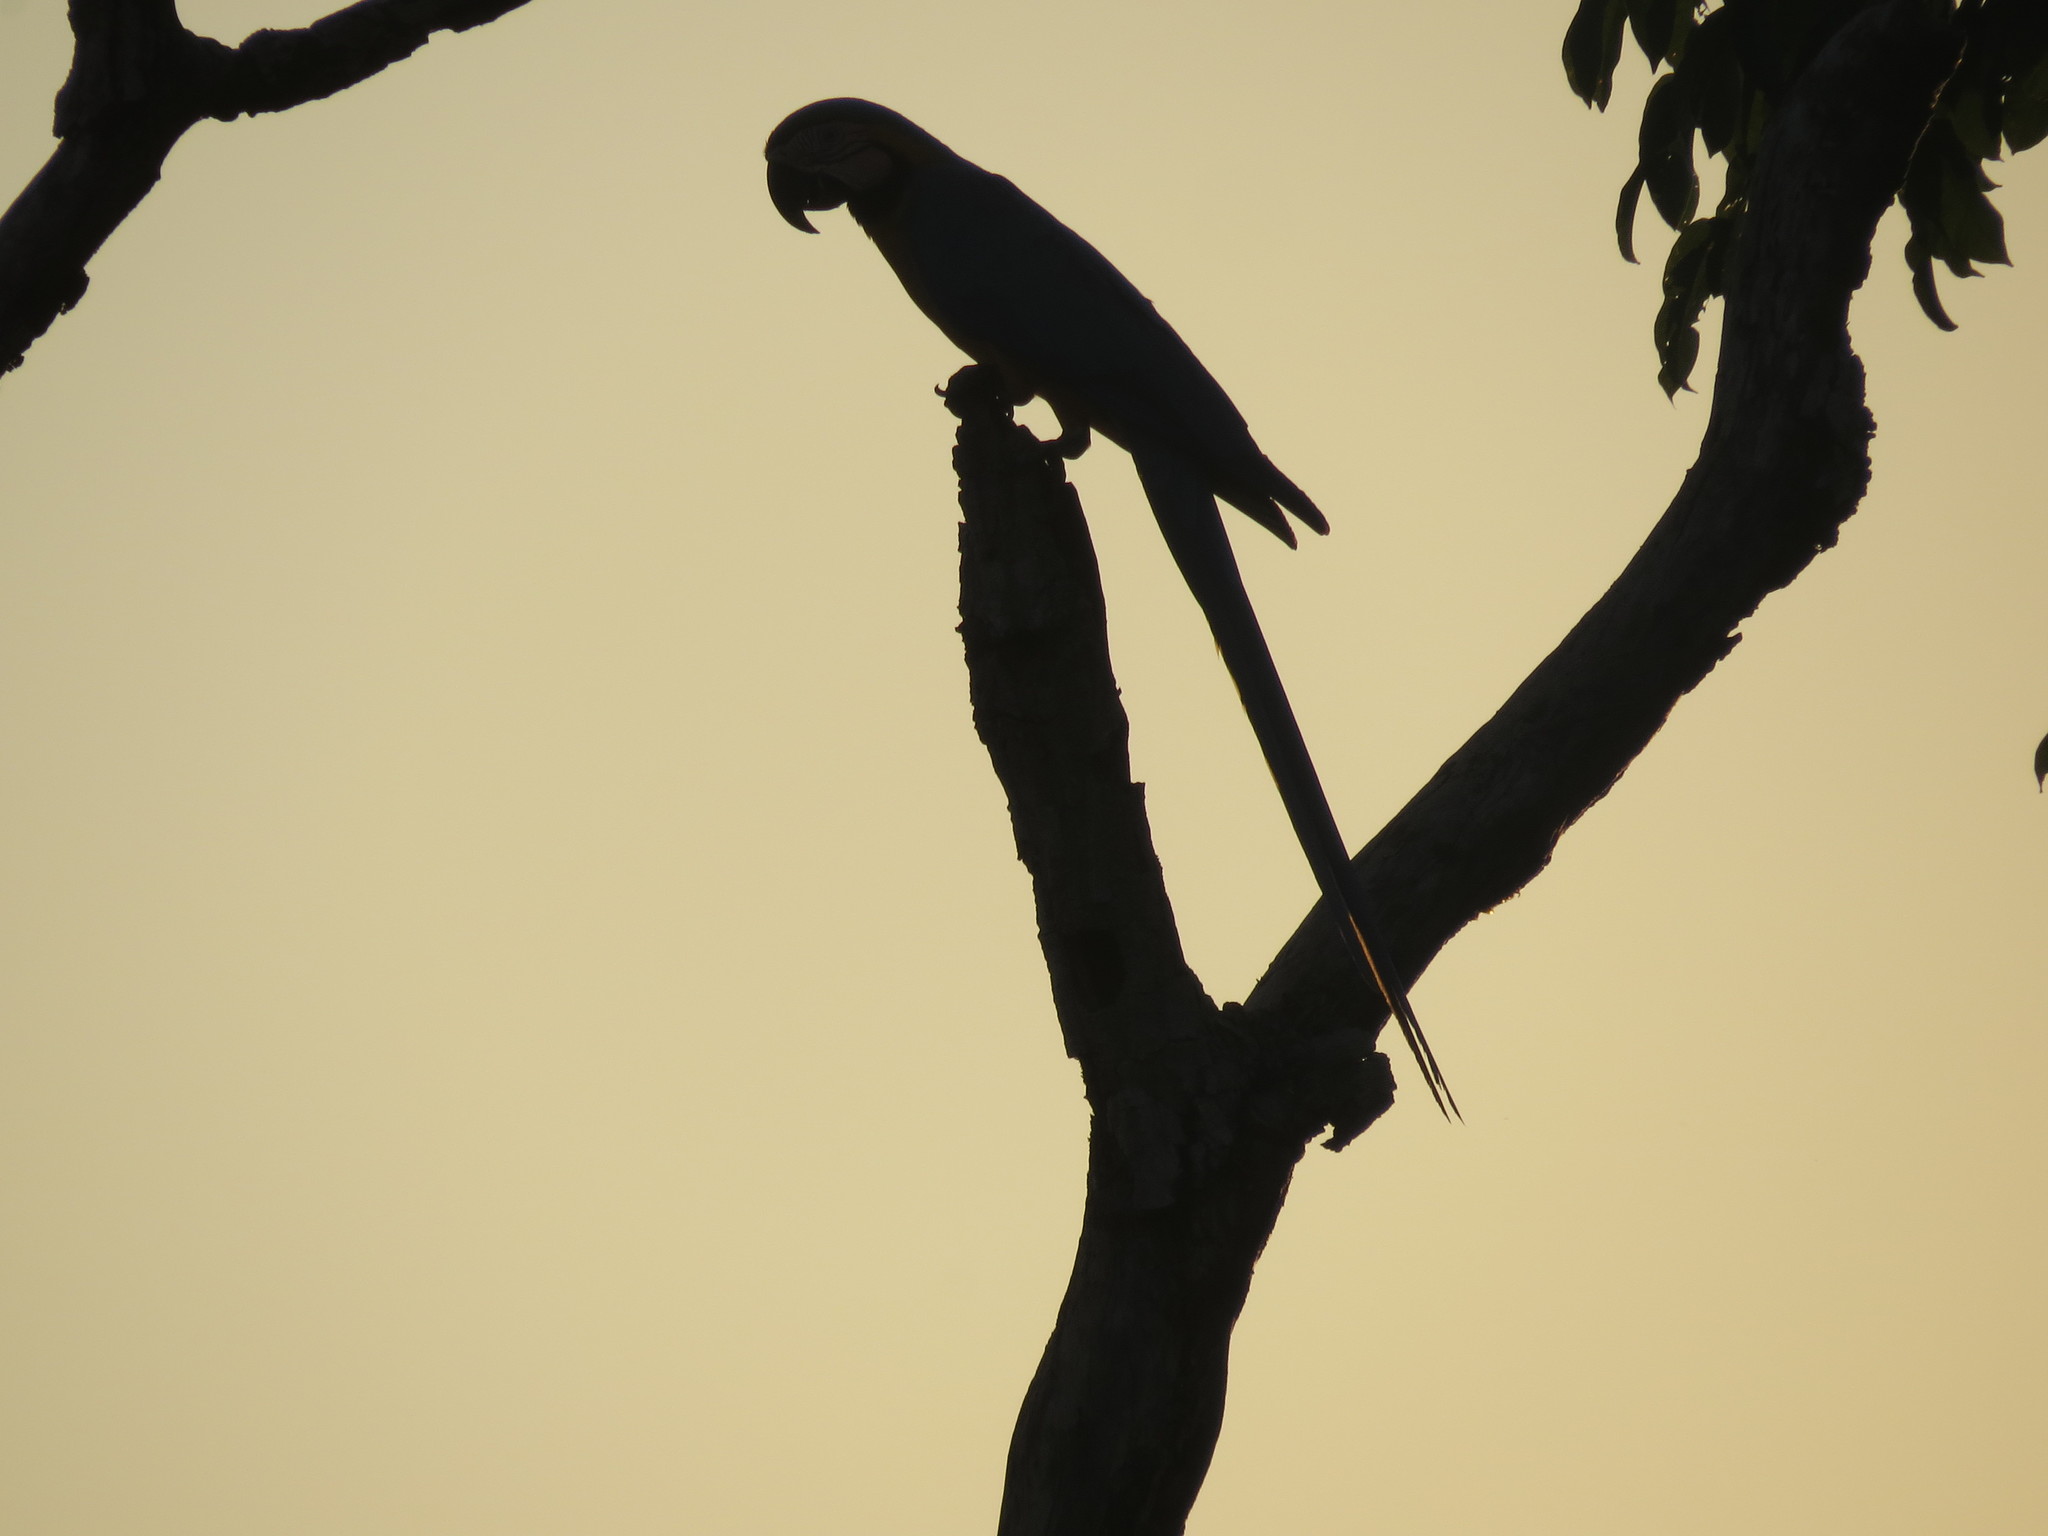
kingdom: Animalia
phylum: Chordata
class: Aves
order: Psittaciformes
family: Psittacidae
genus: Ara
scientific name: Ara ararauna
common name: Blue-and-yellow macaw
